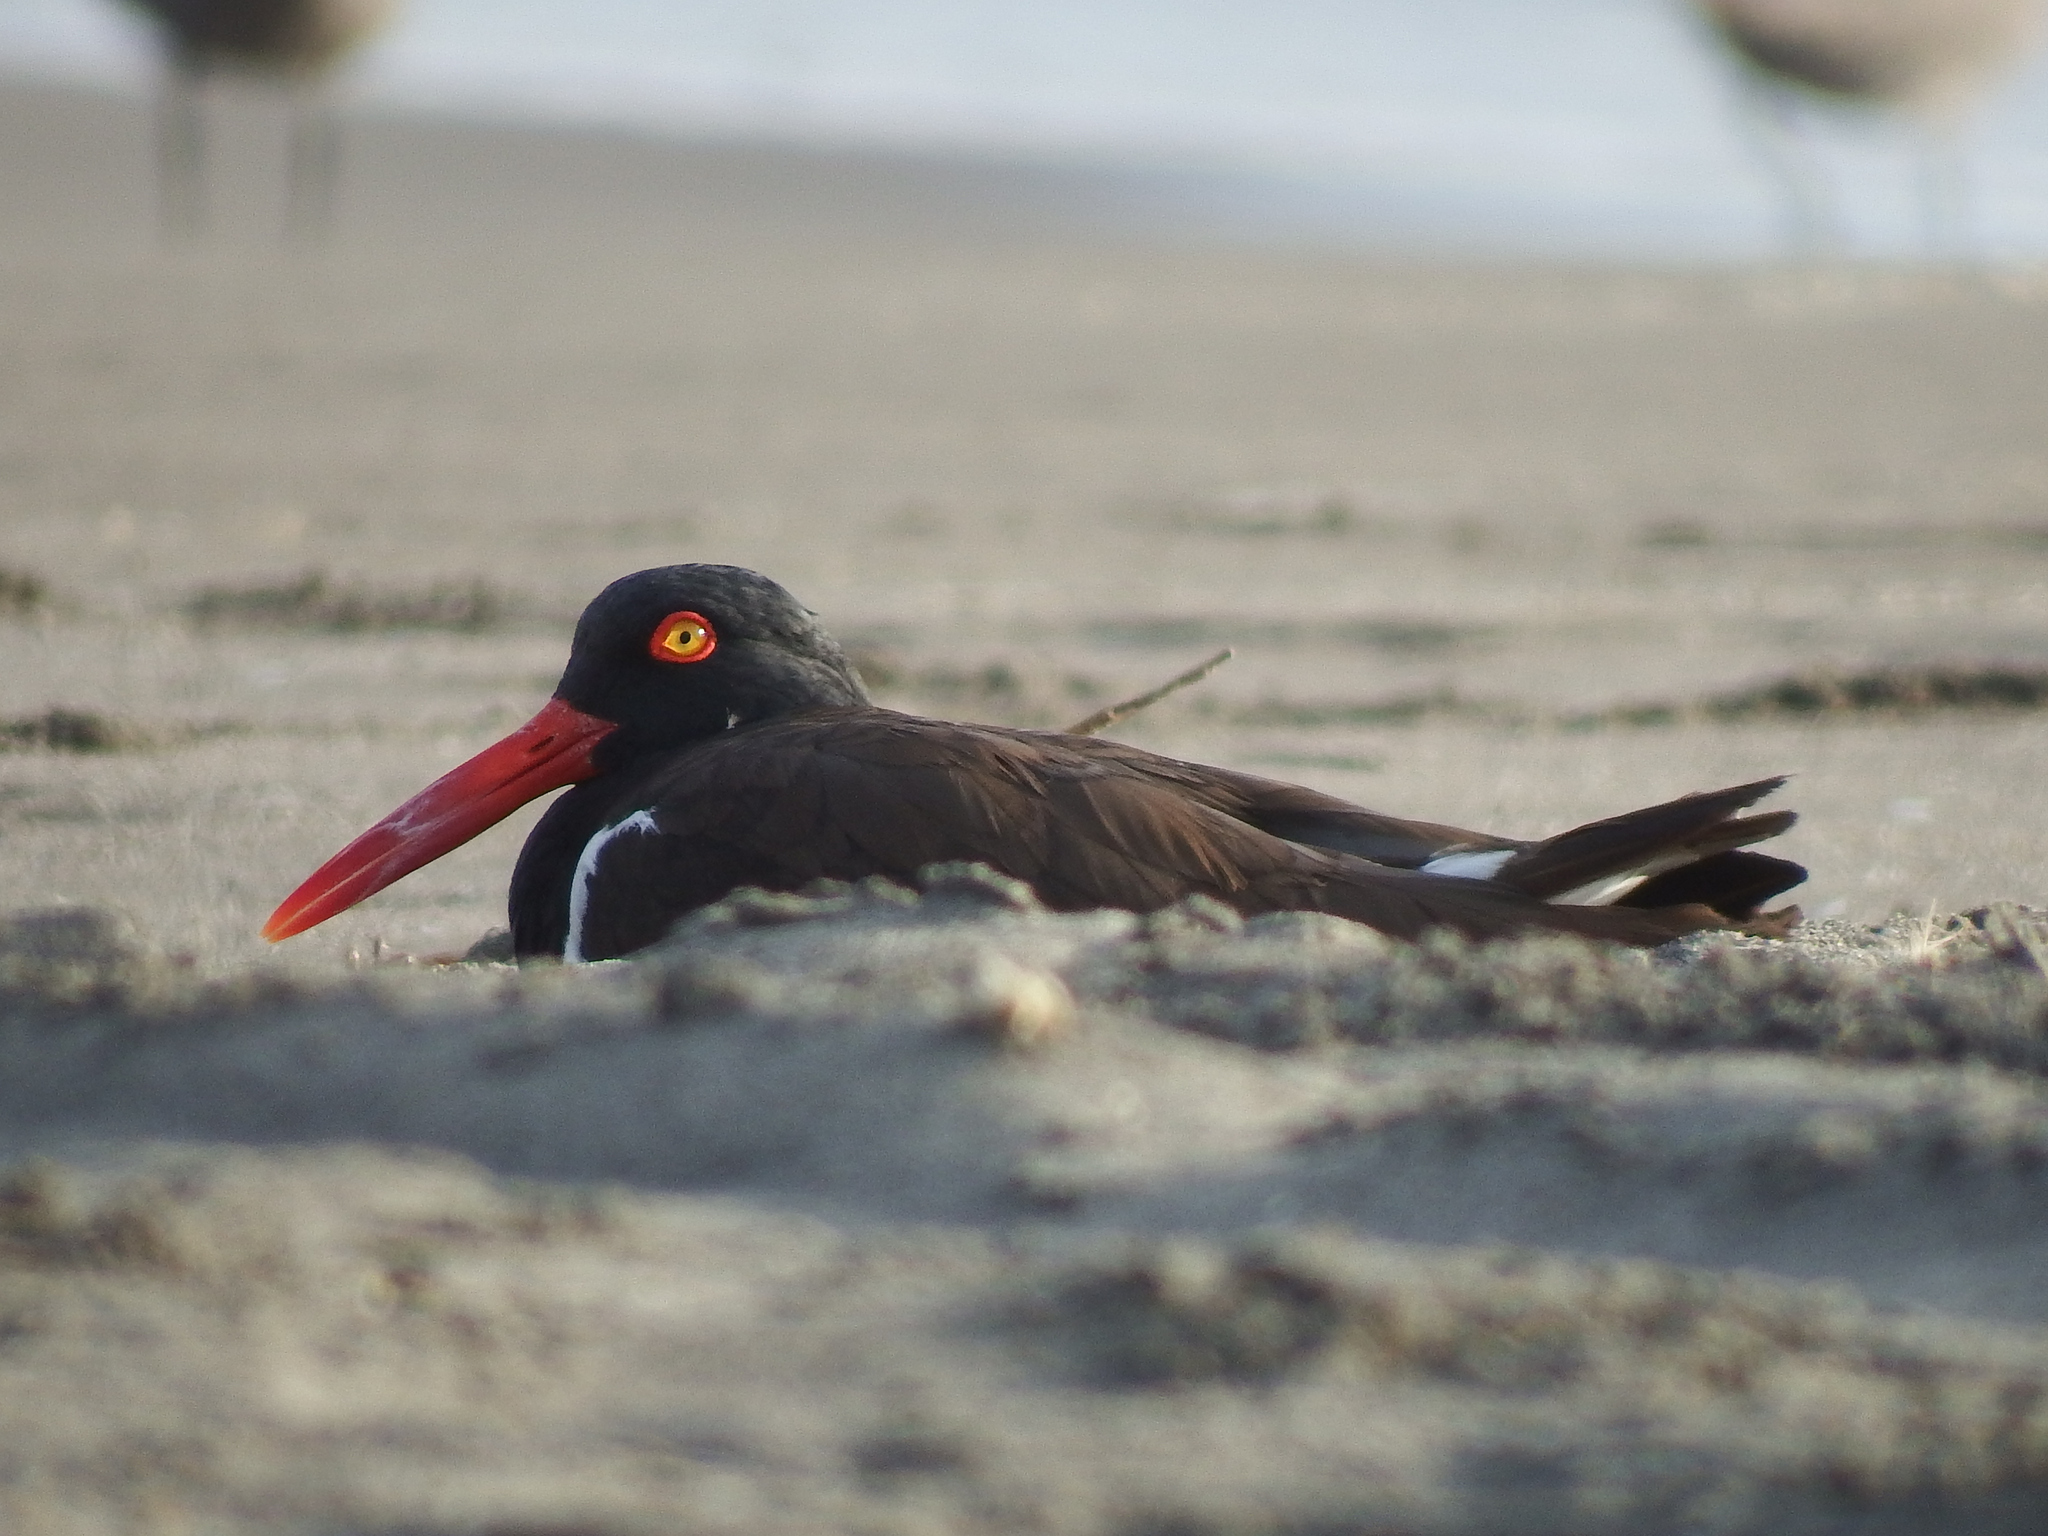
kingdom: Animalia
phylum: Chordata
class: Aves
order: Charadriiformes
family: Haematopodidae
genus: Haematopus
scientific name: Haematopus palliatus
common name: American oystercatcher
